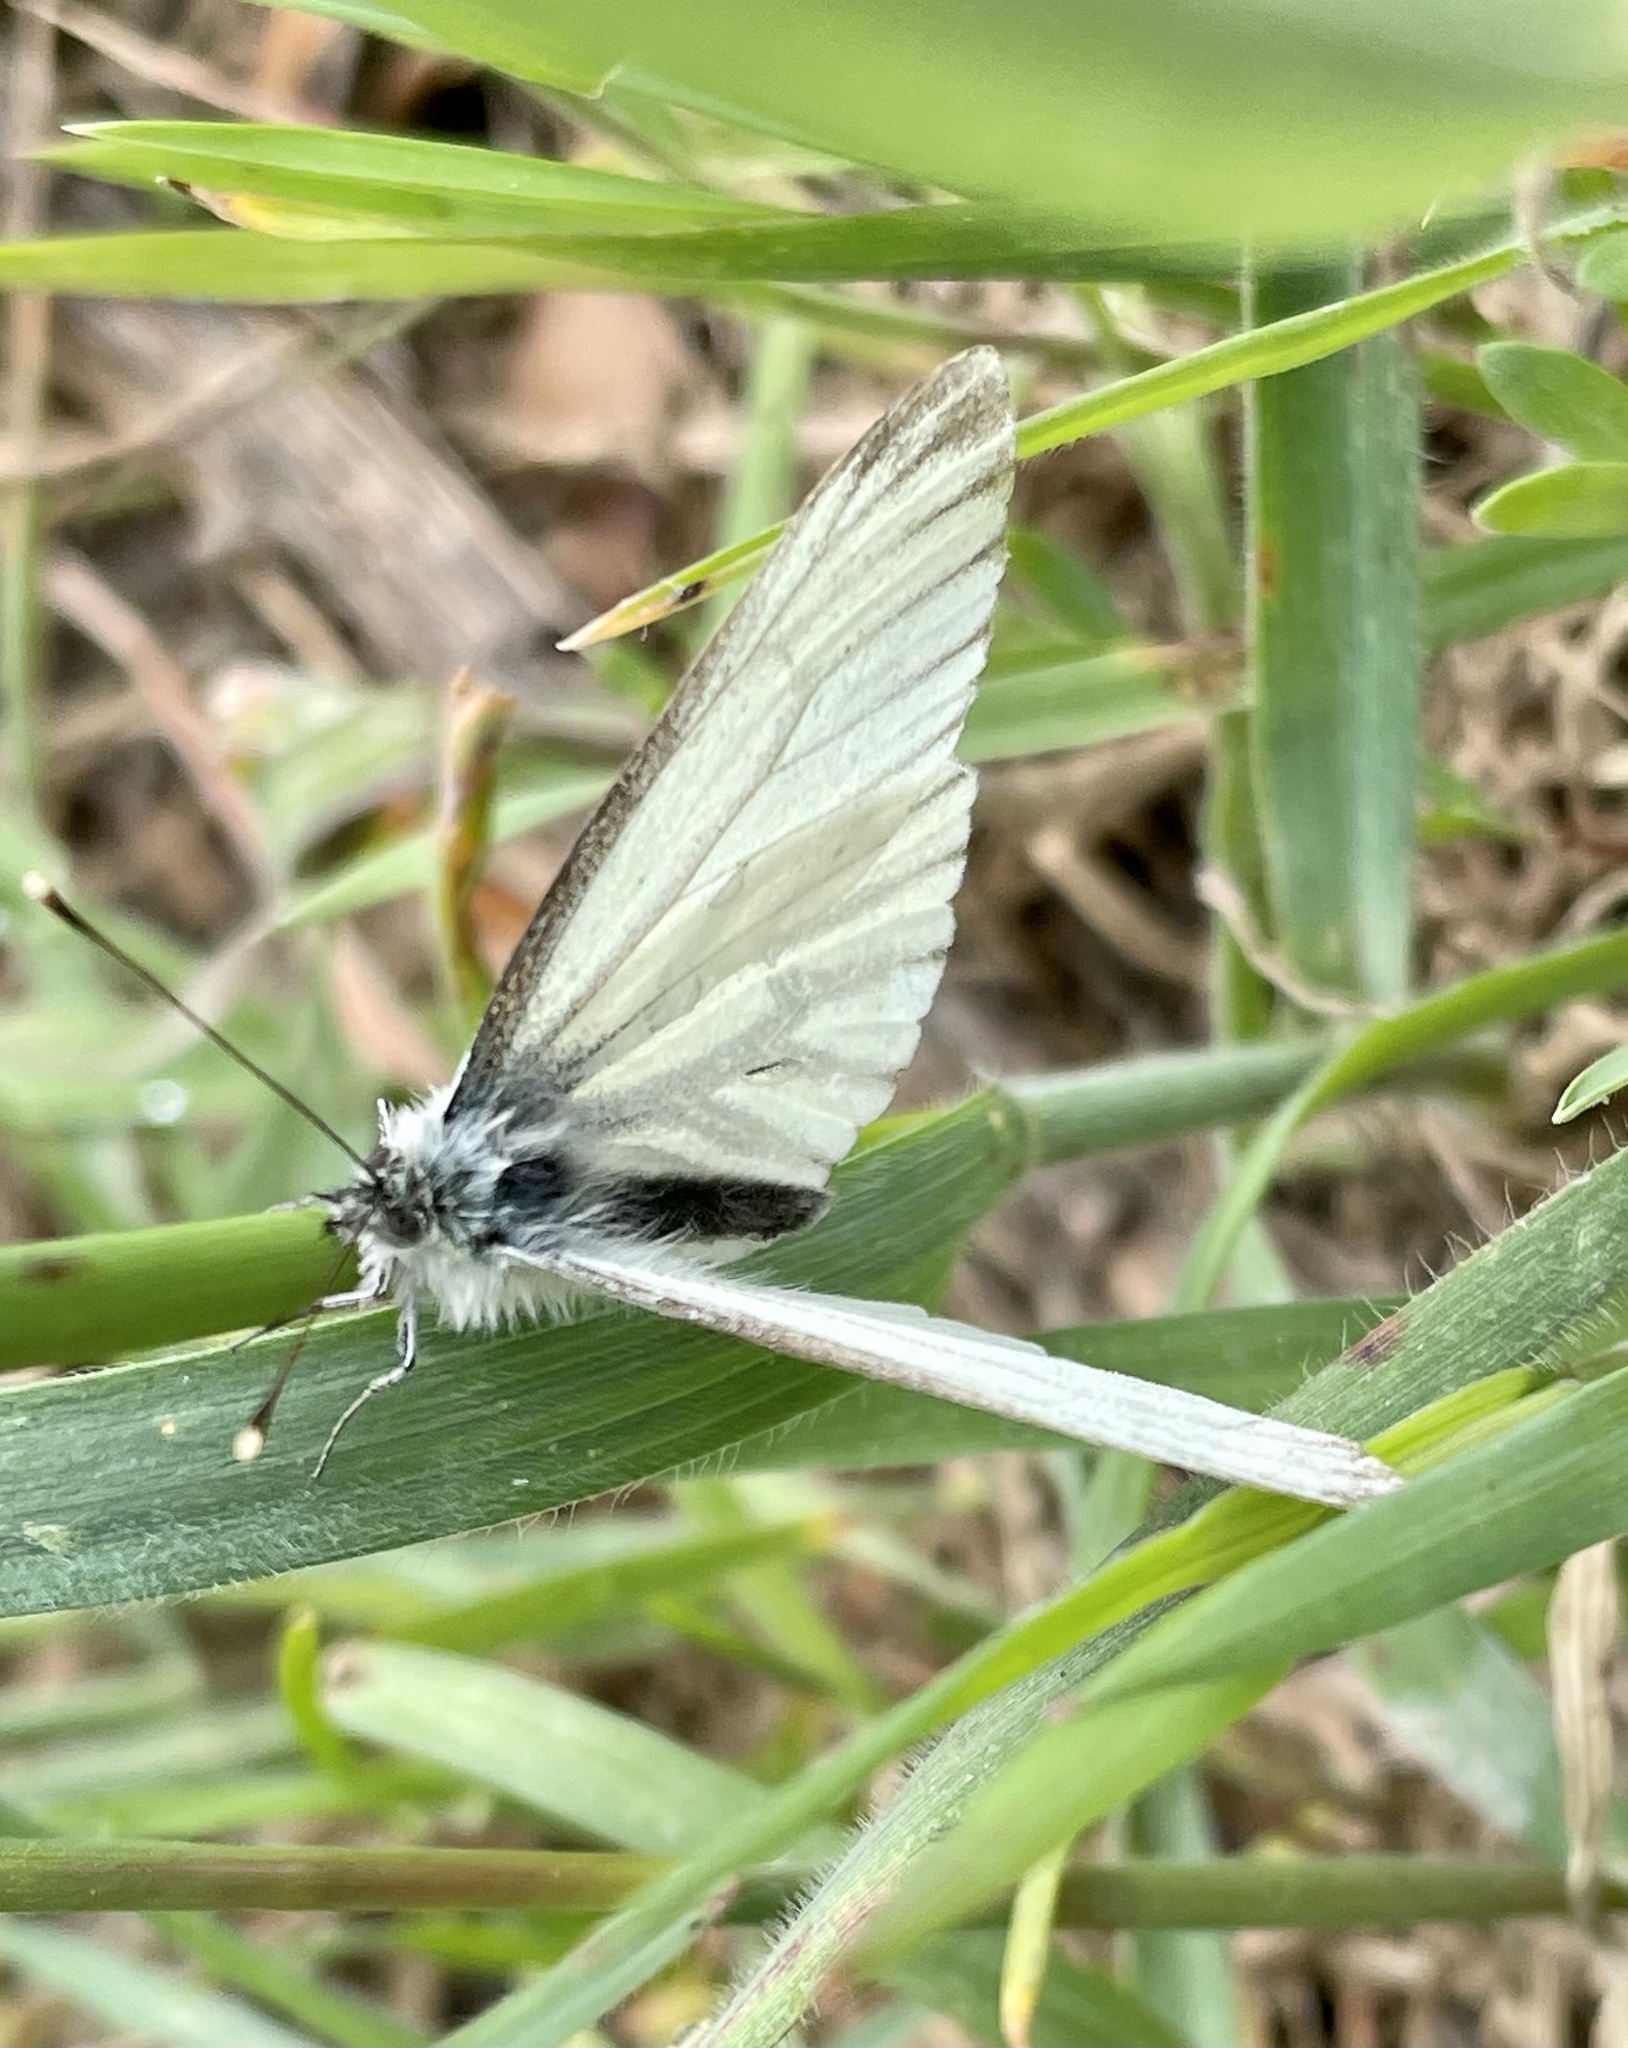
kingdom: Animalia
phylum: Arthropoda
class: Insecta
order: Lepidoptera
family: Pieridae
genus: Pieris
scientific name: Pieris napi
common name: Green-veined white
